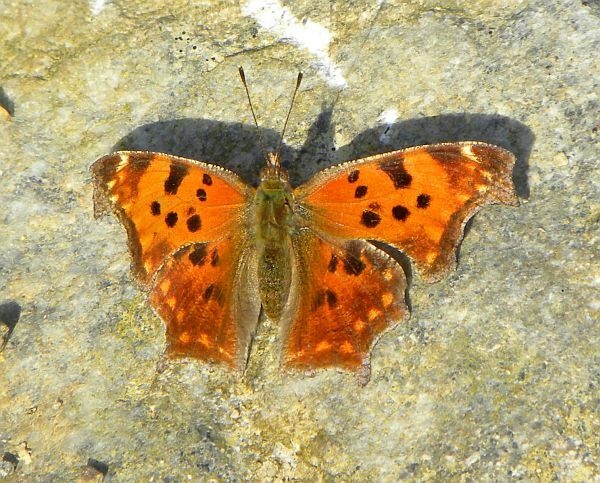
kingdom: Animalia
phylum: Arthropoda
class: Insecta
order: Lepidoptera
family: Nymphalidae
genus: Polygonia
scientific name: Polygonia comma
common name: Eastern comma
